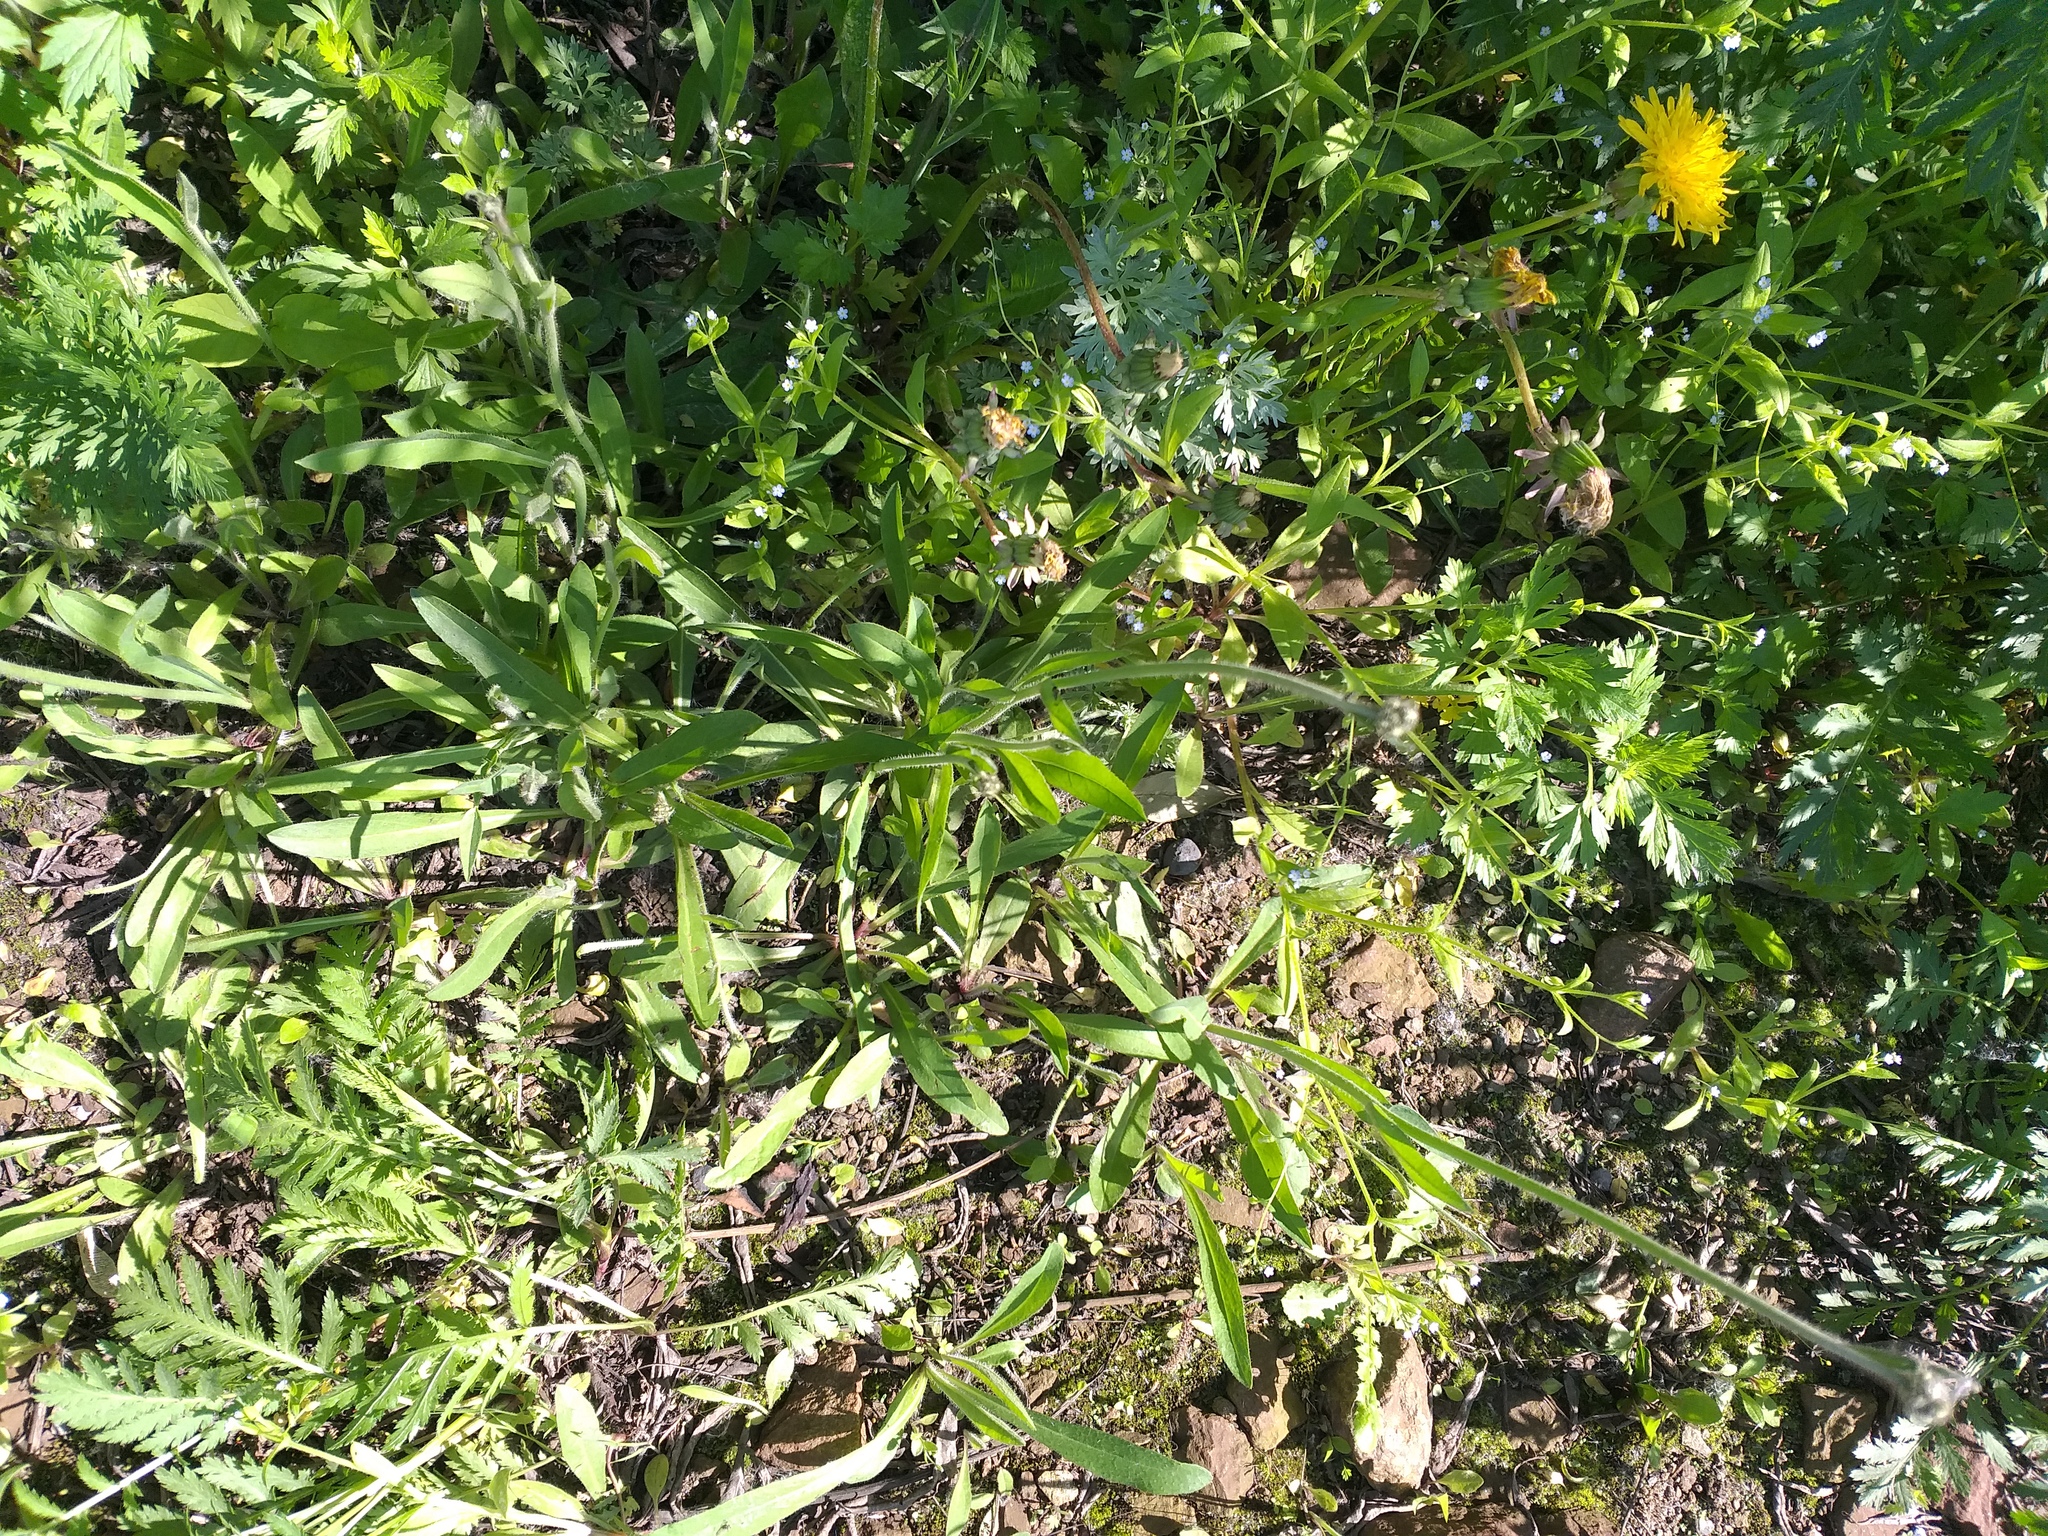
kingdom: Plantae
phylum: Tracheophyta
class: Magnoliopsida
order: Asterales
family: Asteraceae
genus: Pilosella
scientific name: Pilosella
